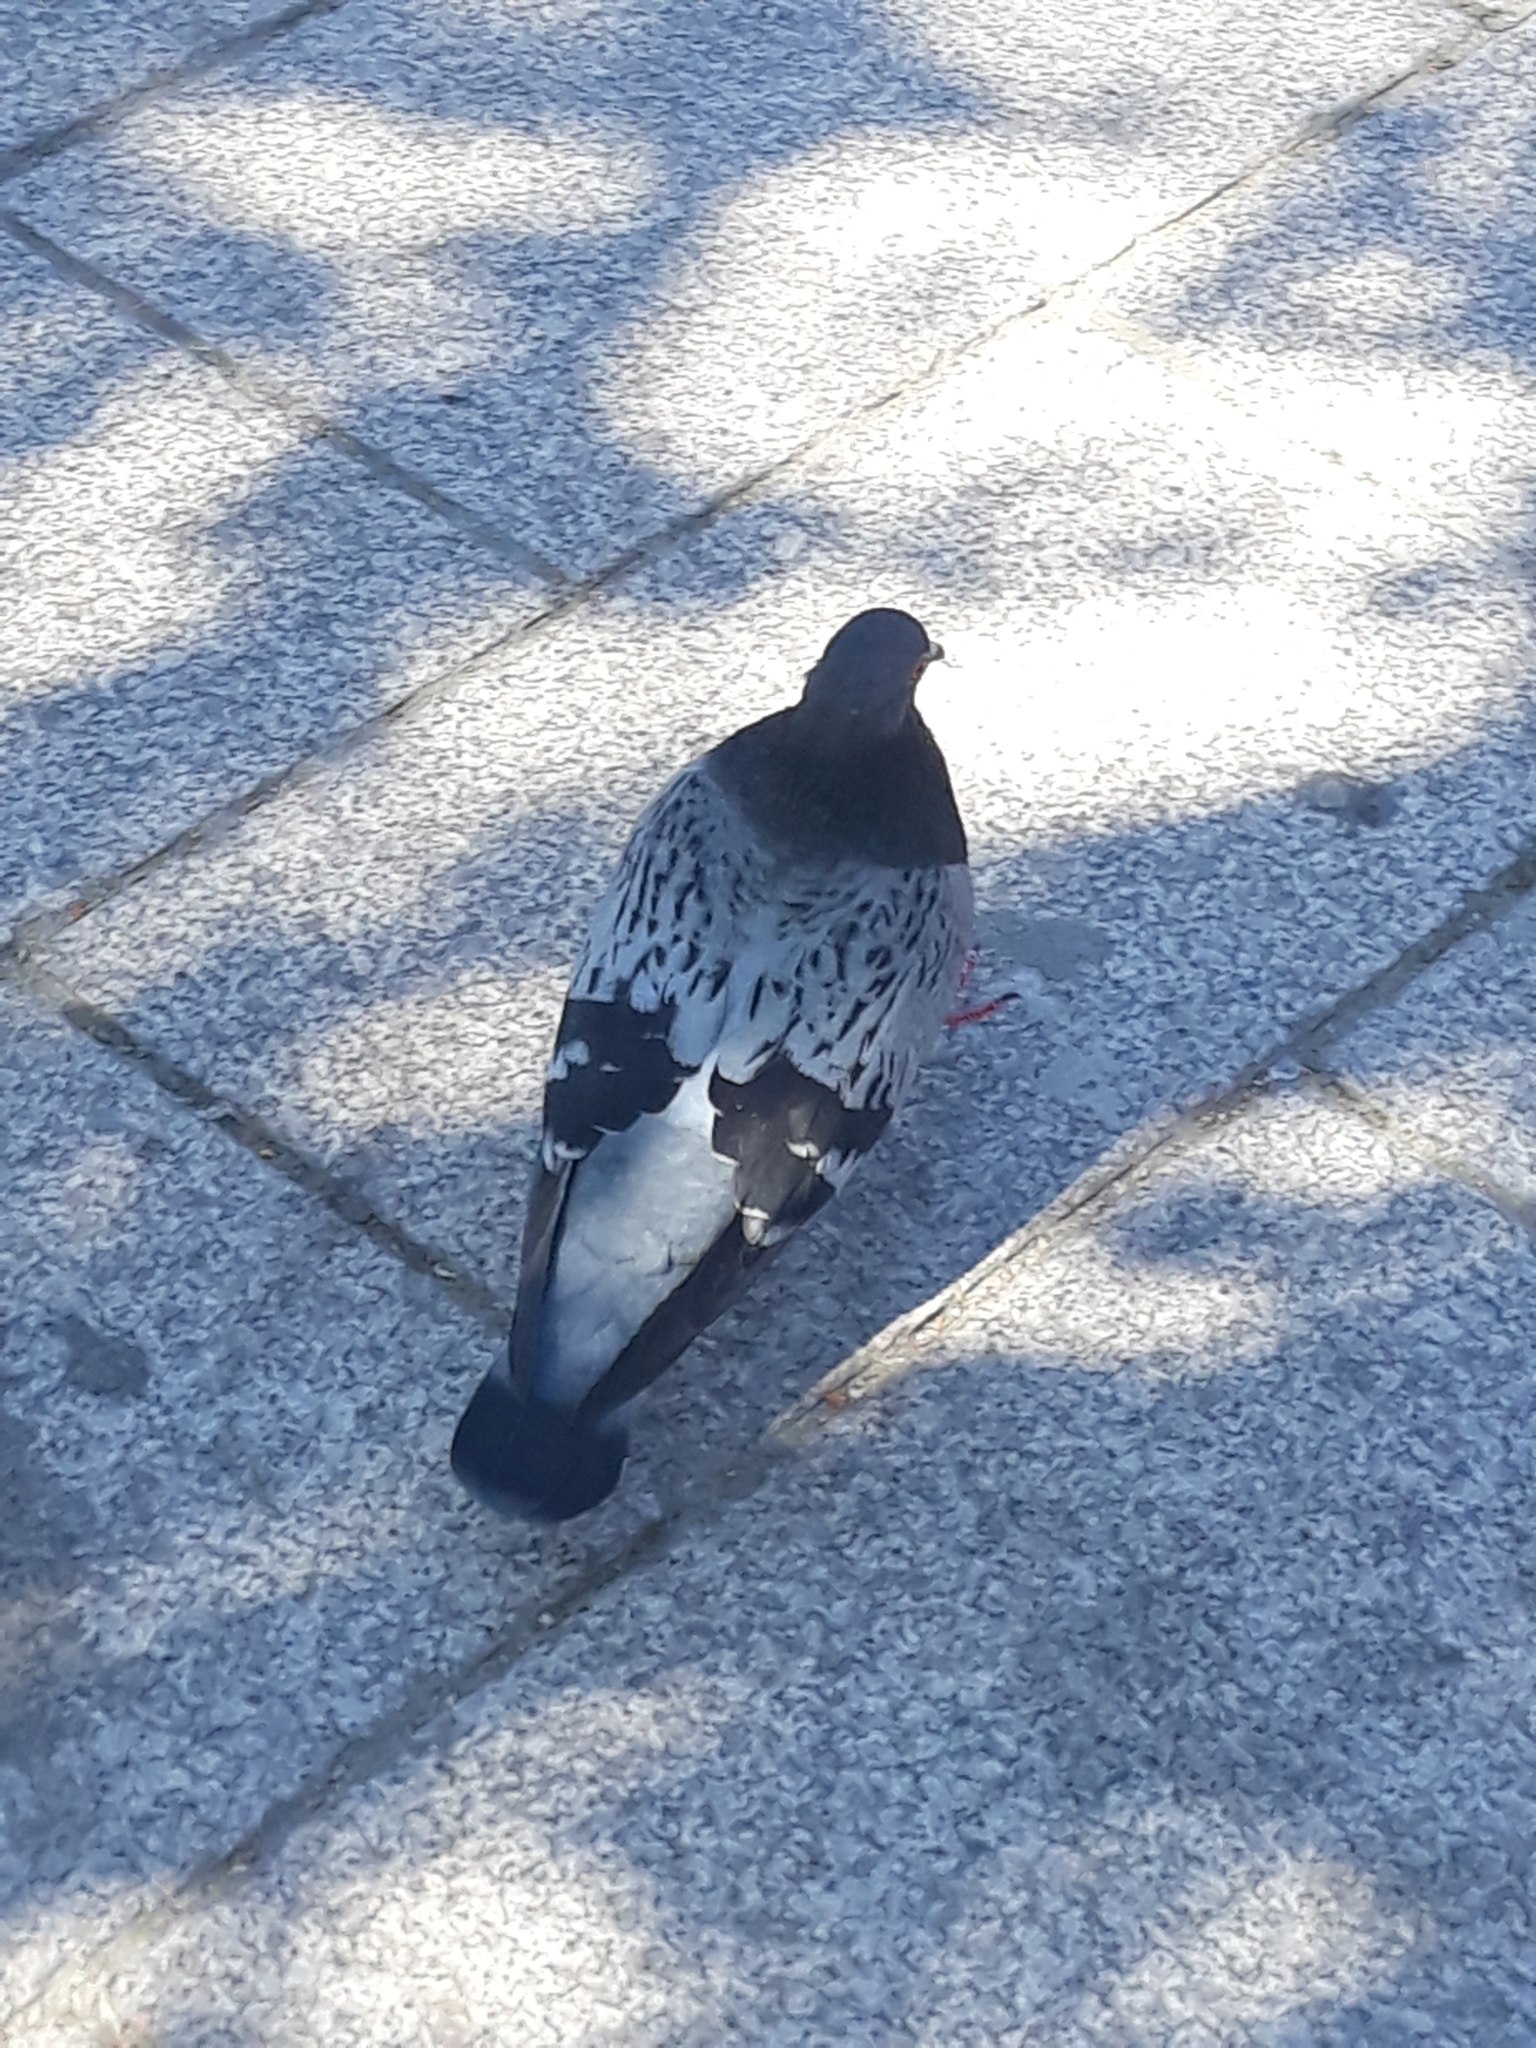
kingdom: Animalia
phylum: Chordata
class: Aves
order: Columbiformes
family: Columbidae
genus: Columba
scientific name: Columba livia
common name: Rock pigeon
